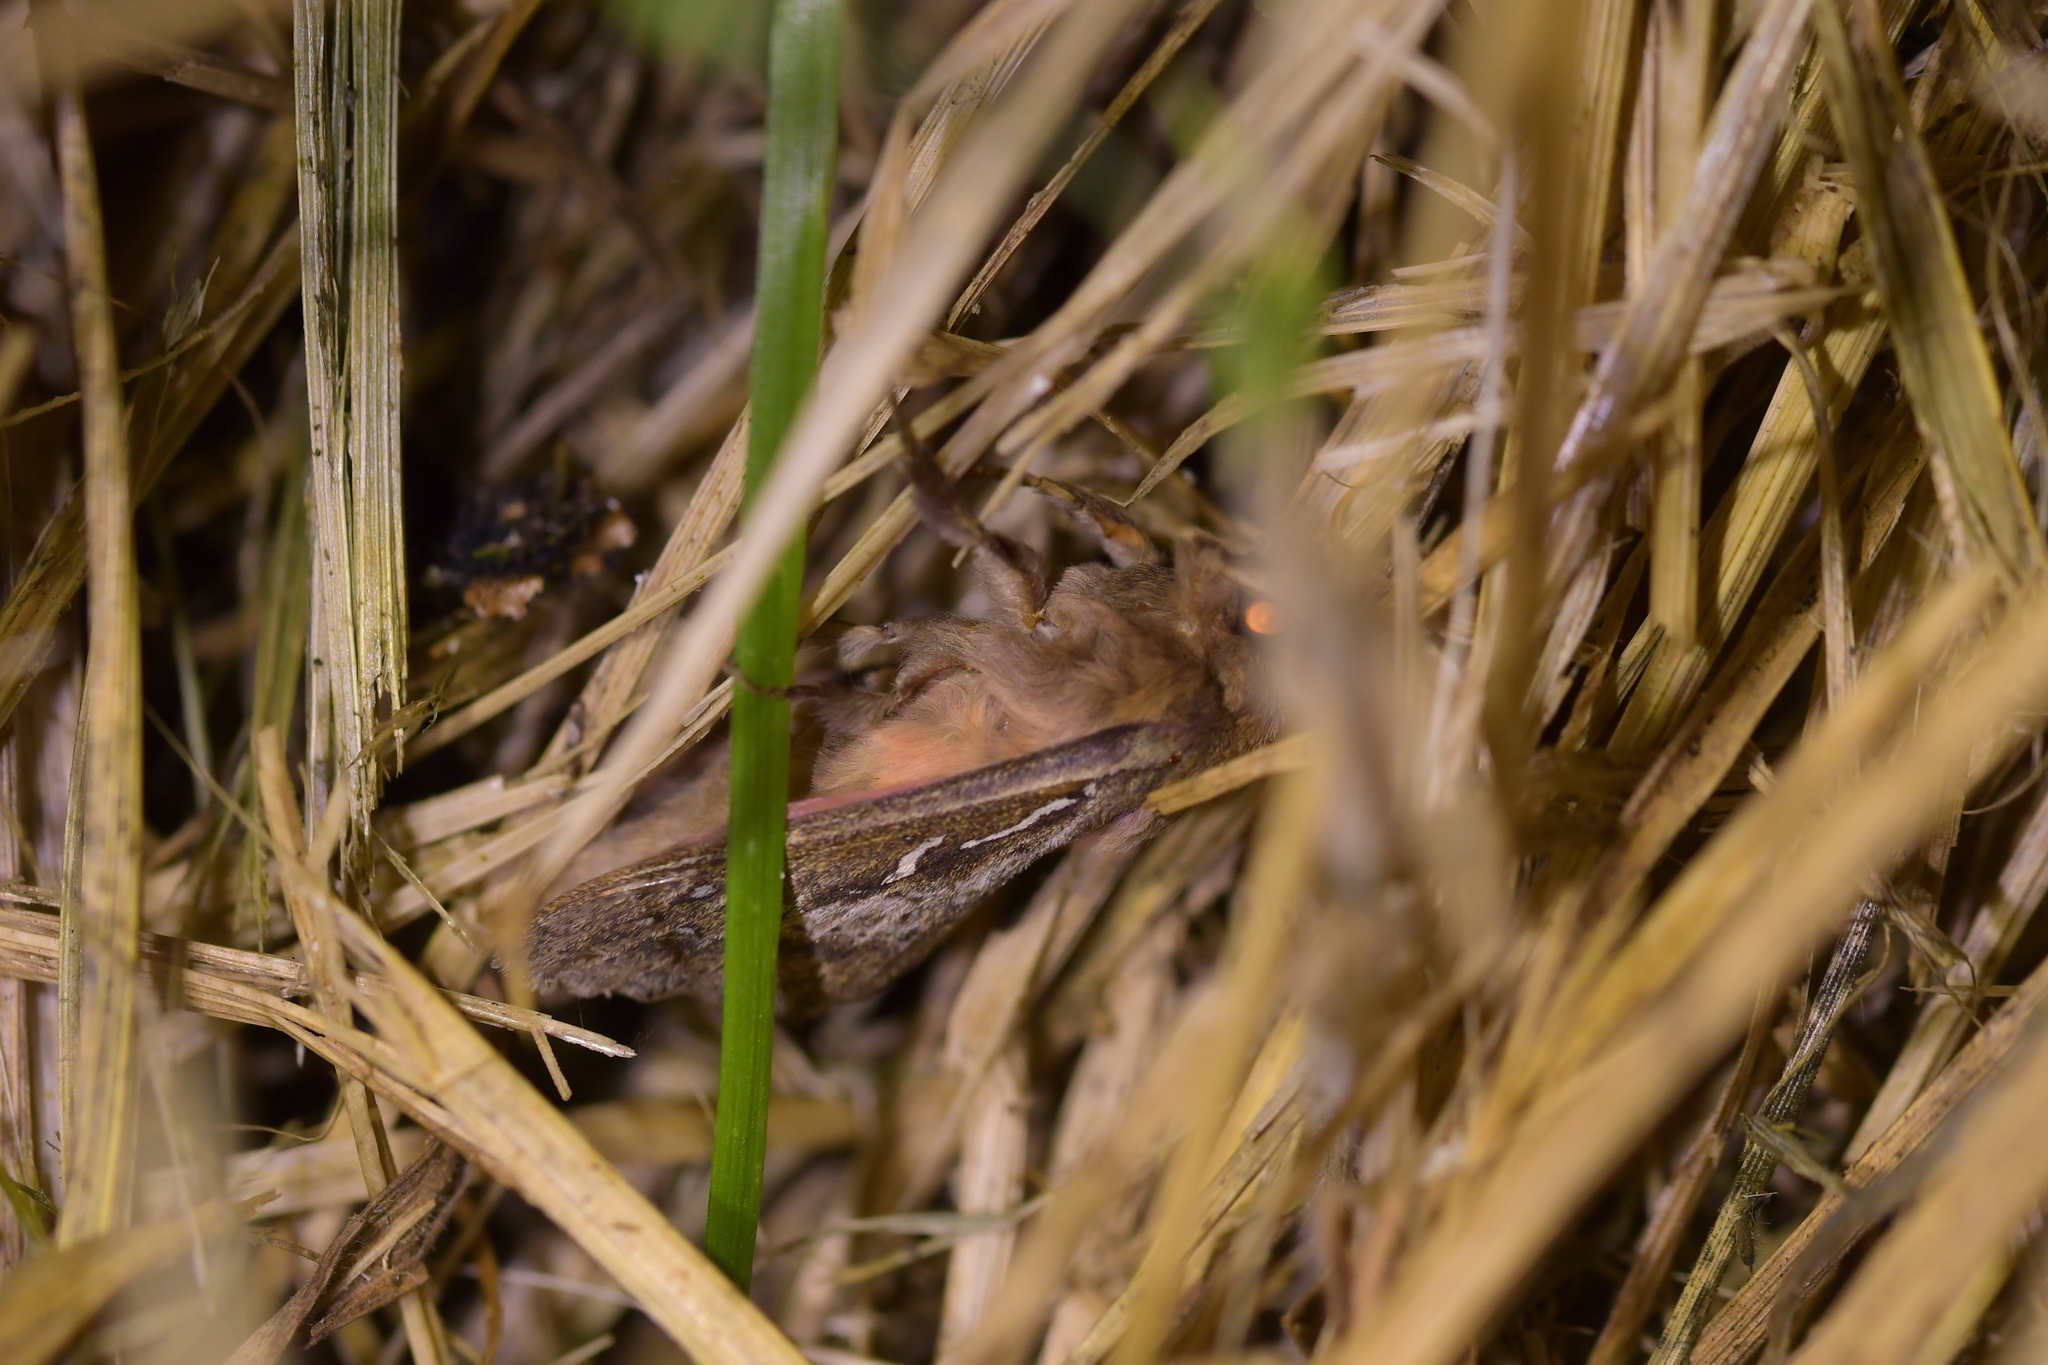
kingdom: Animalia
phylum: Arthropoda
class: Insecta
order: Lepidoptera
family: Hepialidae
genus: Wiseana
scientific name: Wiseana signata
